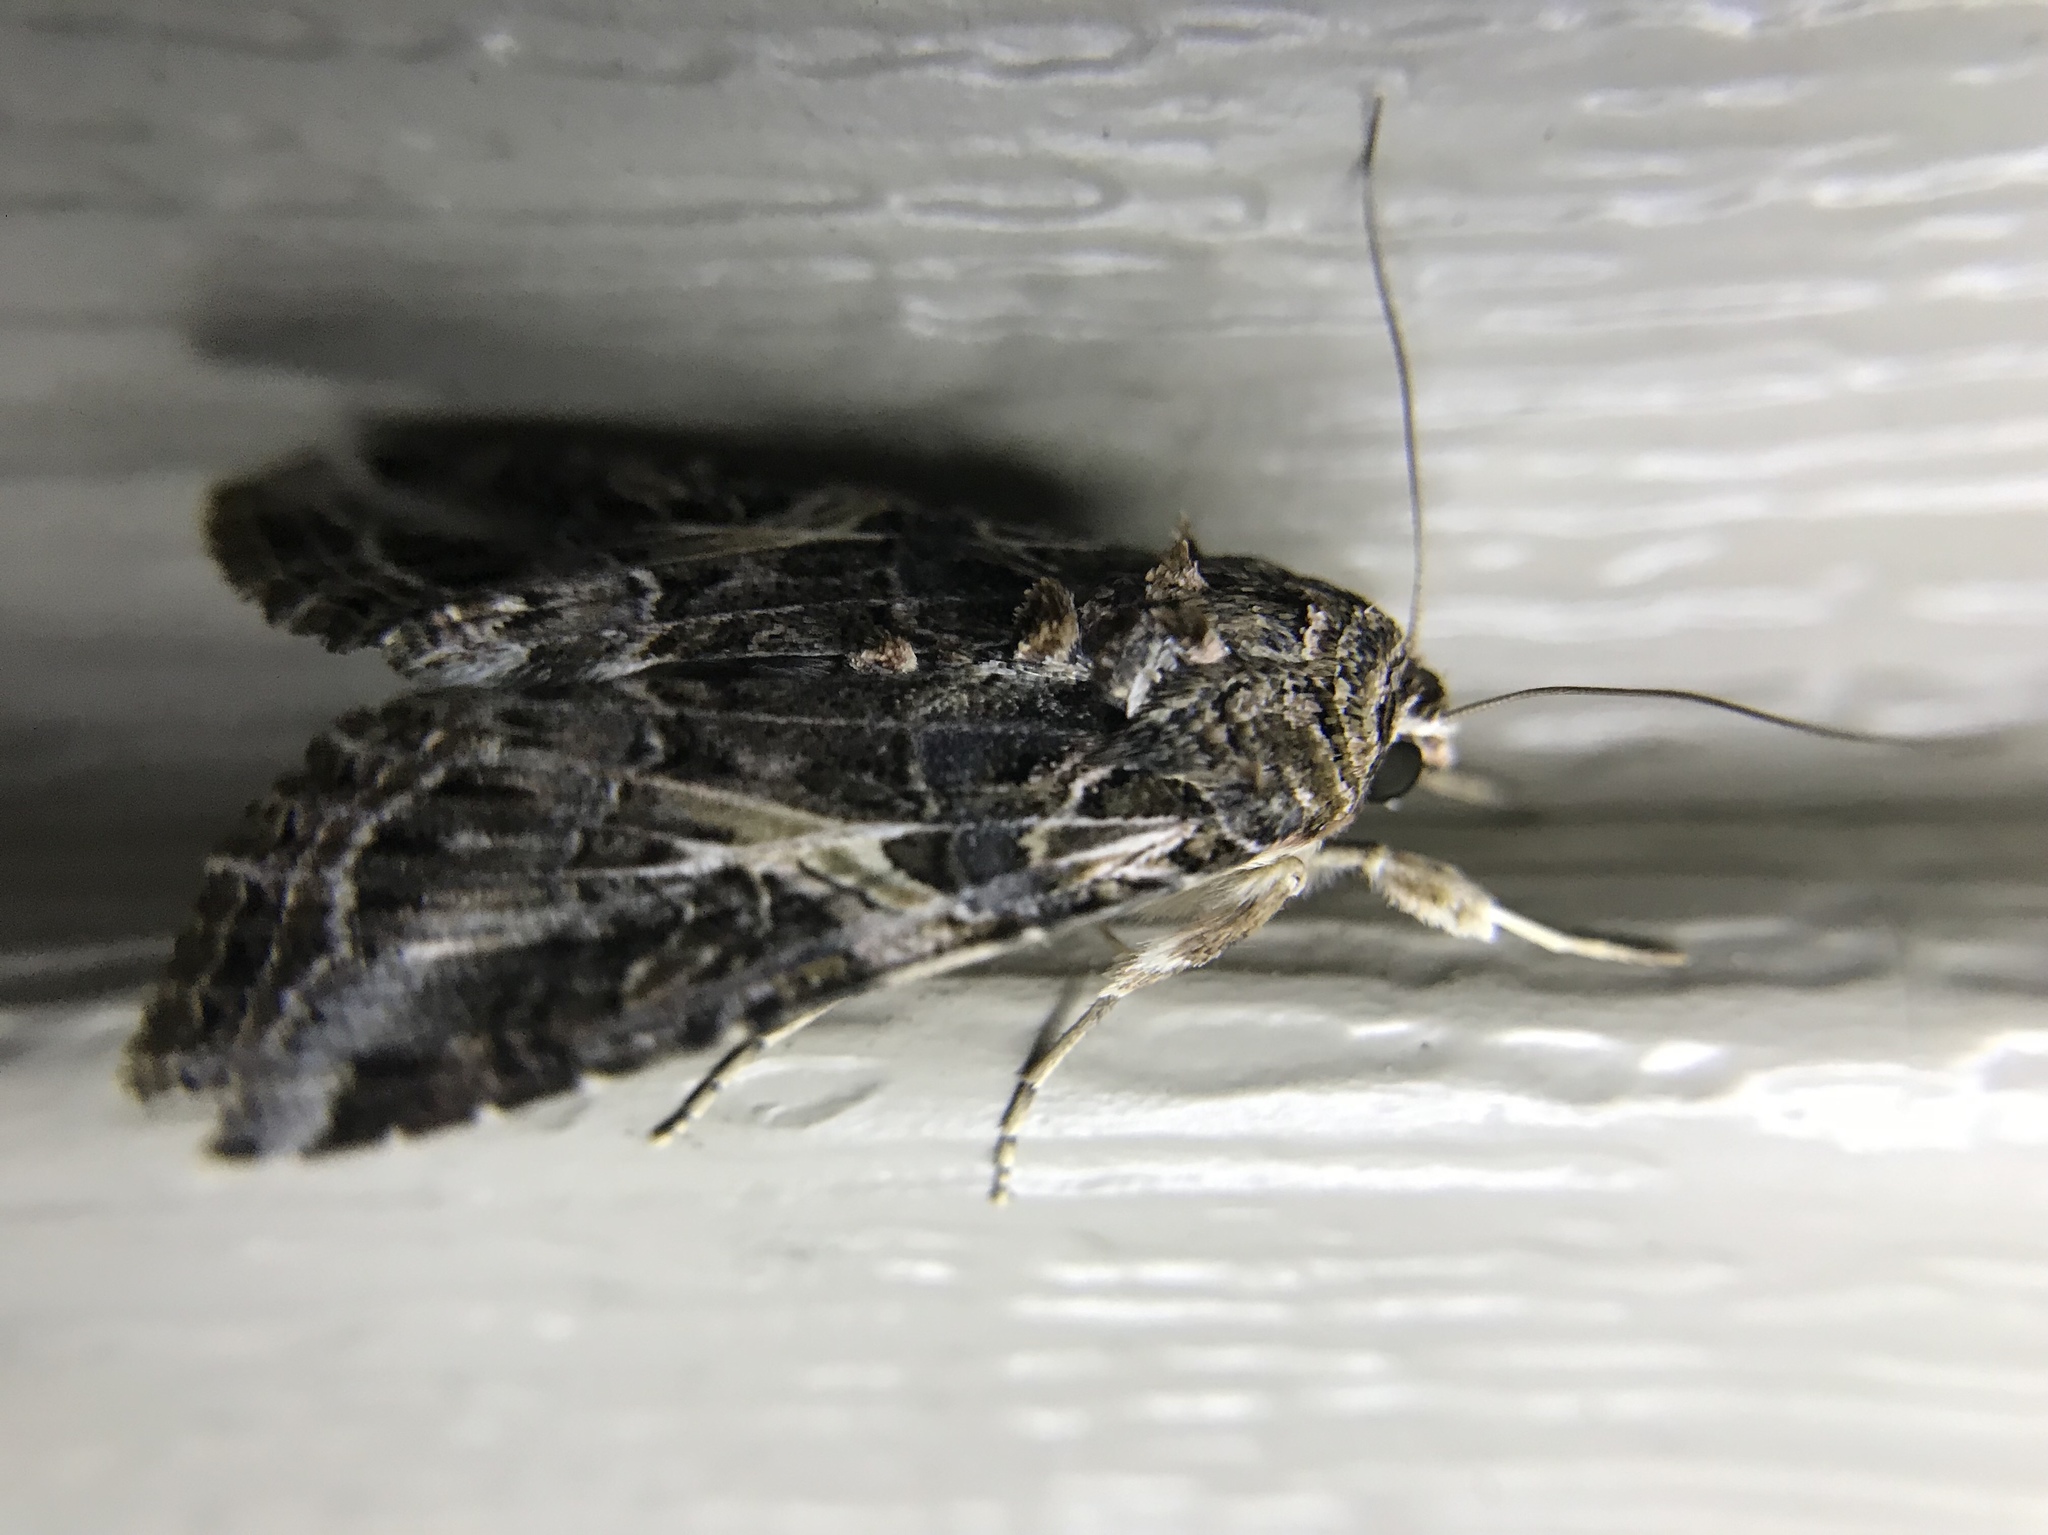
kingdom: Animalia
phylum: Arthropoda
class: Insecta
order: Lepidoptera
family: Noctuidae
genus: Spodoptera
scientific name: Spodoptera ornithogalli
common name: Yellow-striped armyworm
